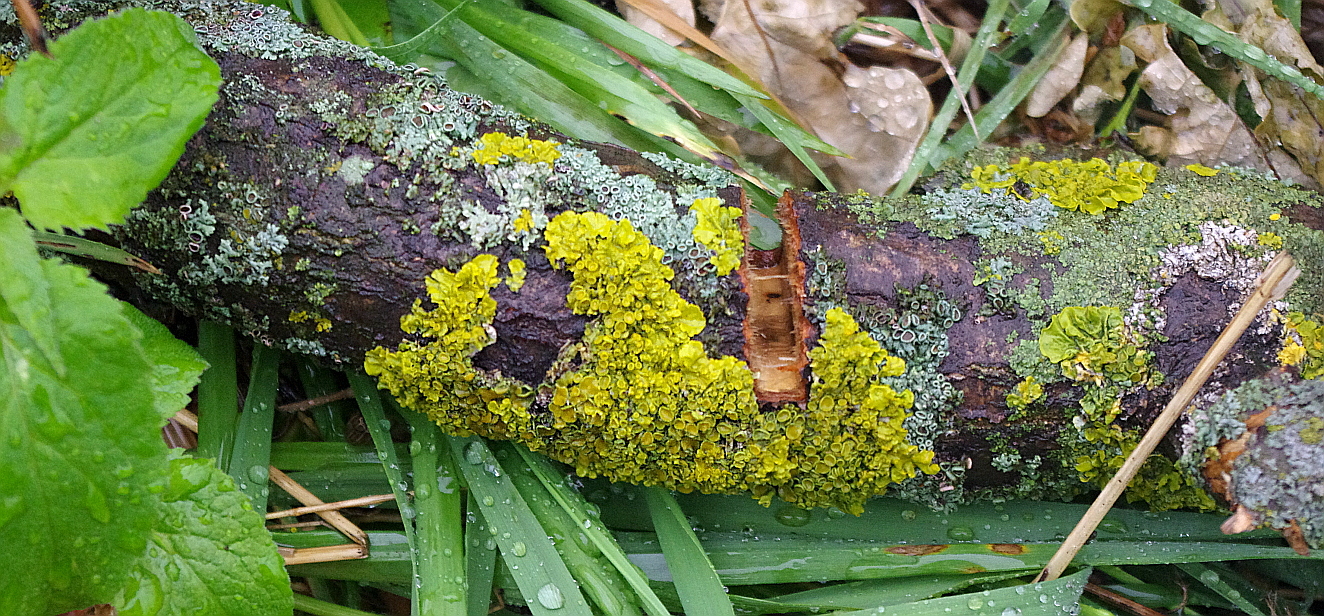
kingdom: Fungi
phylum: Ascomycota
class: Lecanoromycetes
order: Teloschistales
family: Teloschistaceae
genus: Xanthoria
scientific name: Xanthoria parietina
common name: Common orange lichen
